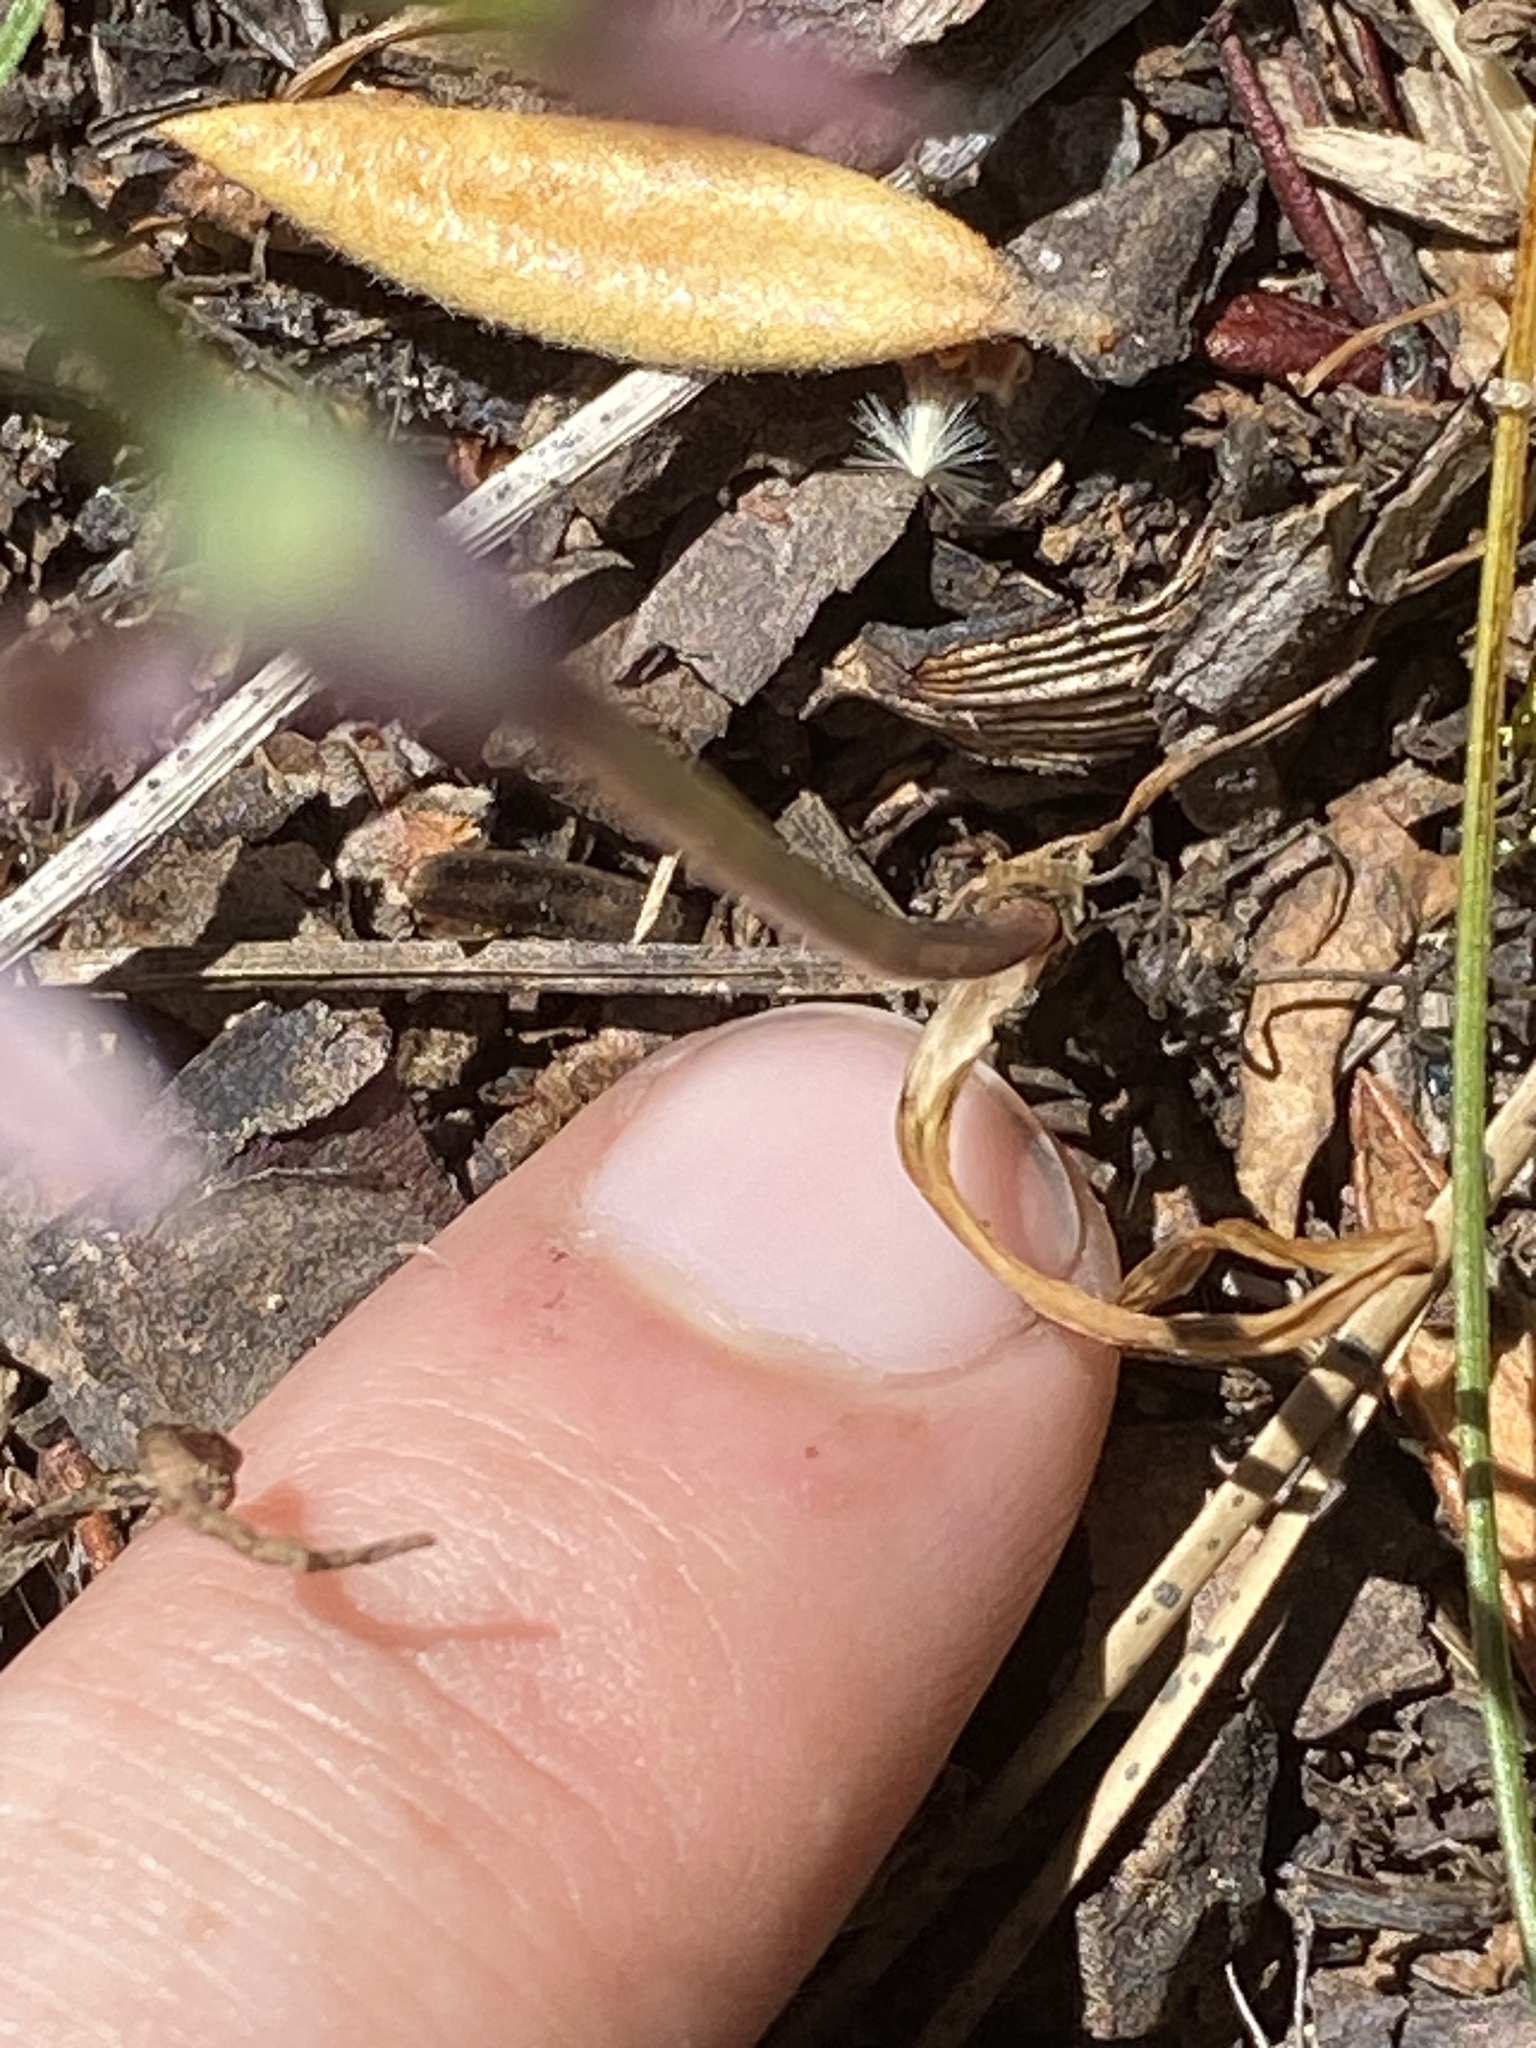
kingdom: Plantae
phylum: Tracheophyta
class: Liliopsida
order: Asparagales
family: Amaryllidaceae
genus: Allium
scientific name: Allium campanulatum
